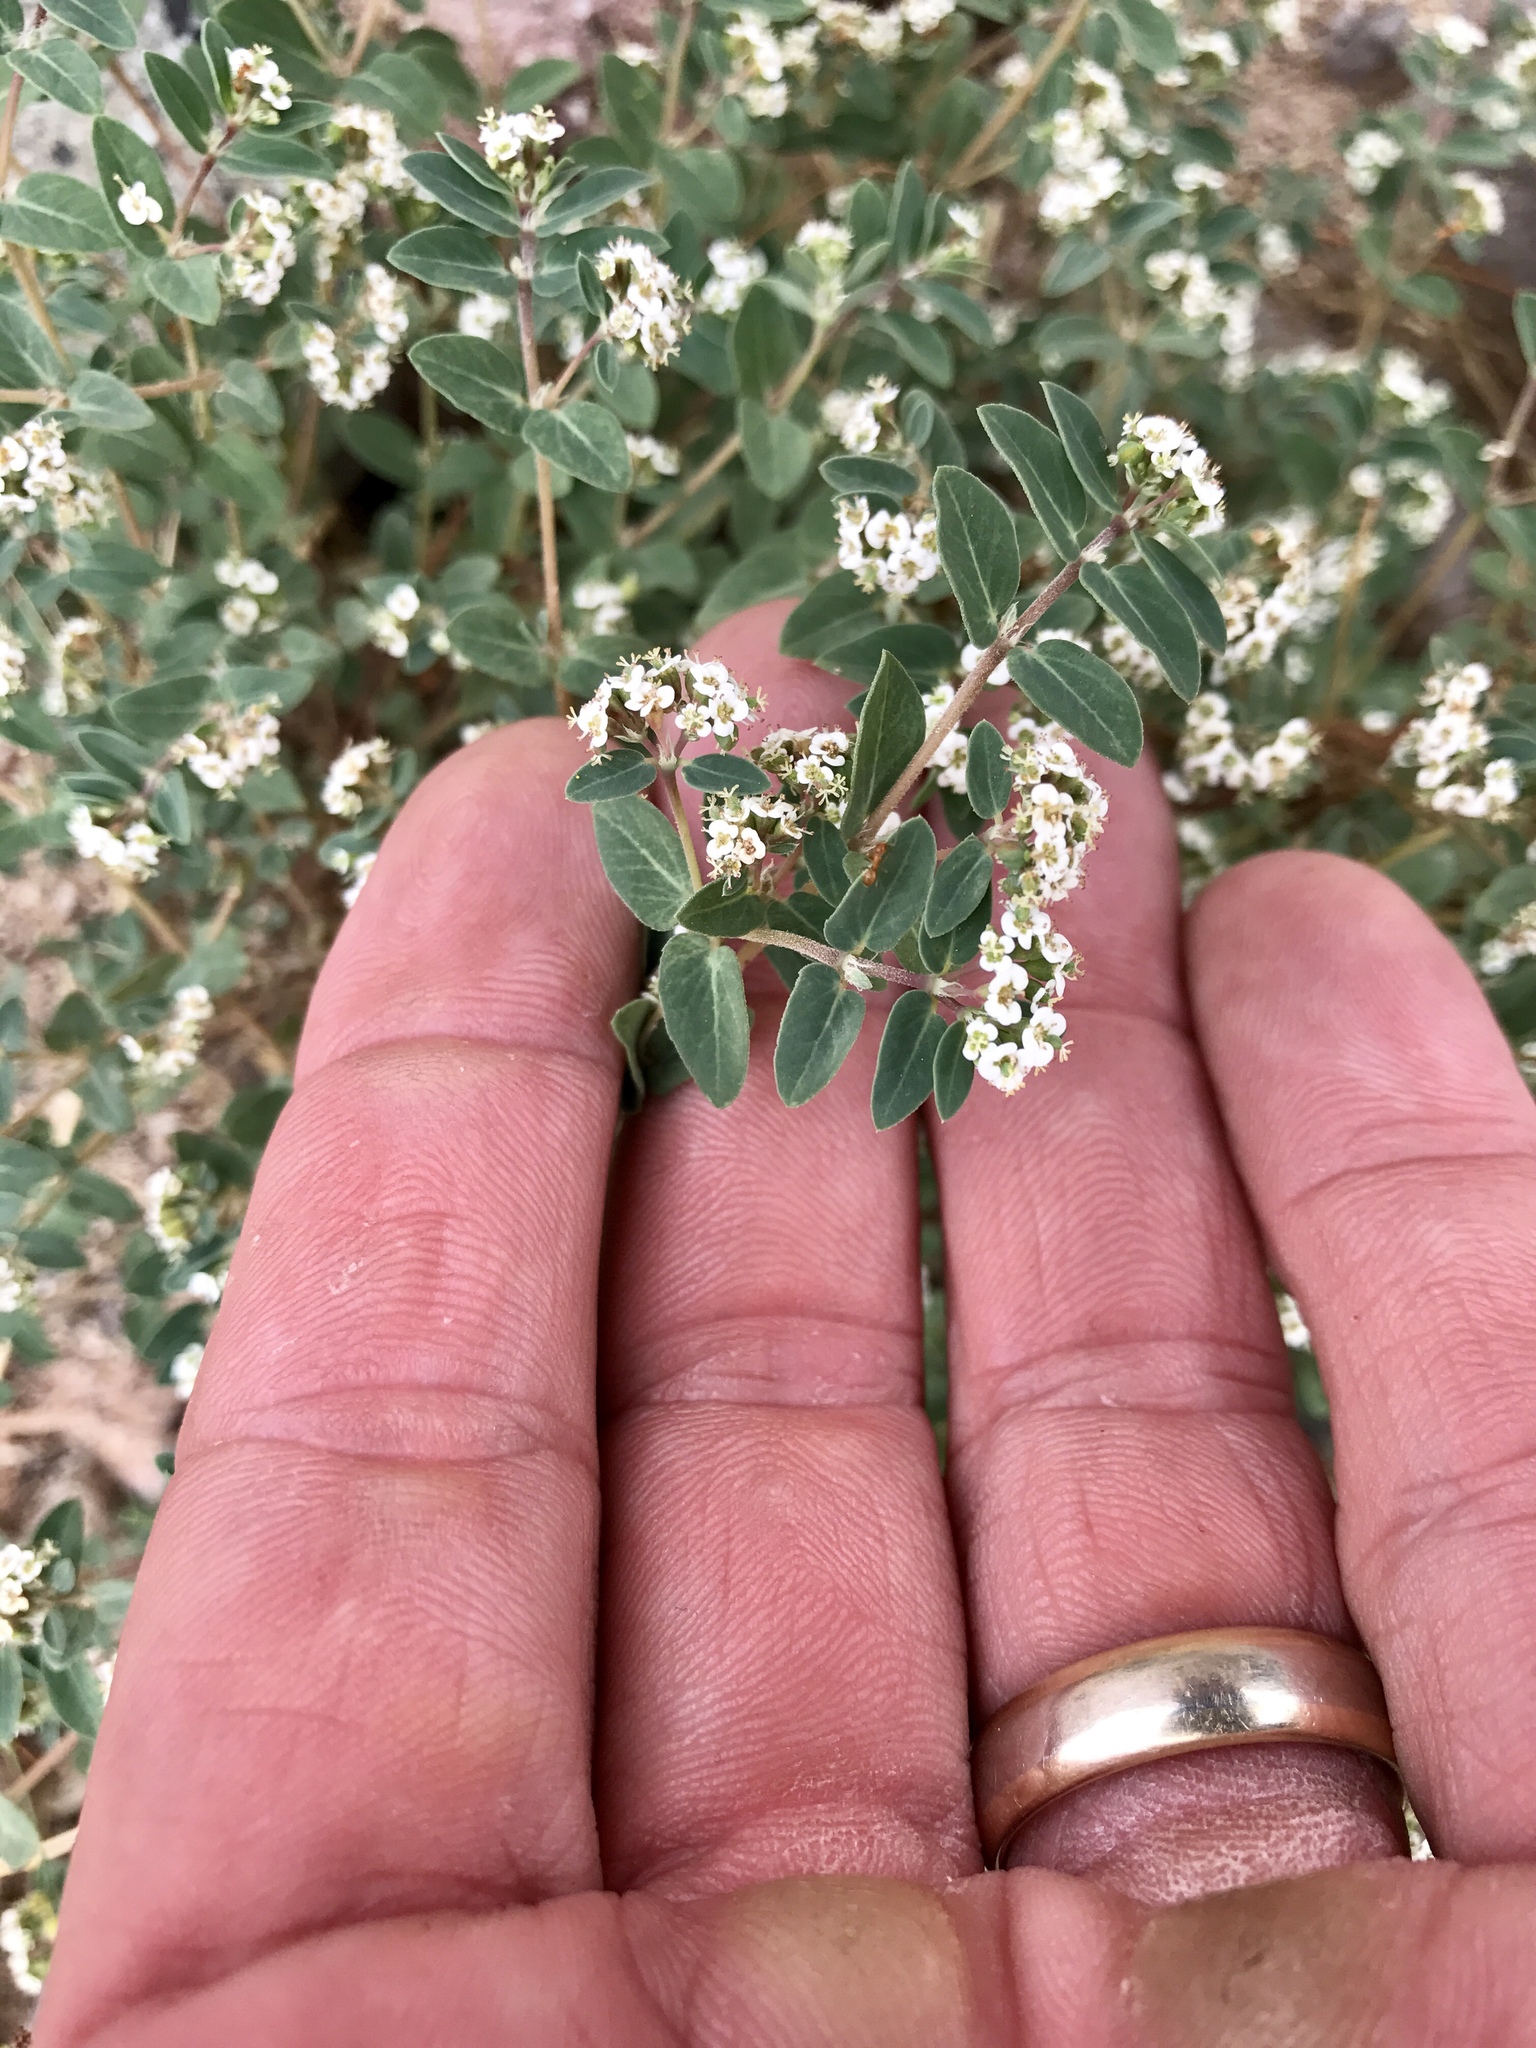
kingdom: Plantae
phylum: Tracheophyta
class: Magnoliopsida
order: Malpighiales
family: Euphorbiaceae
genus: Euphorbia
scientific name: Euphorbia capitellata
